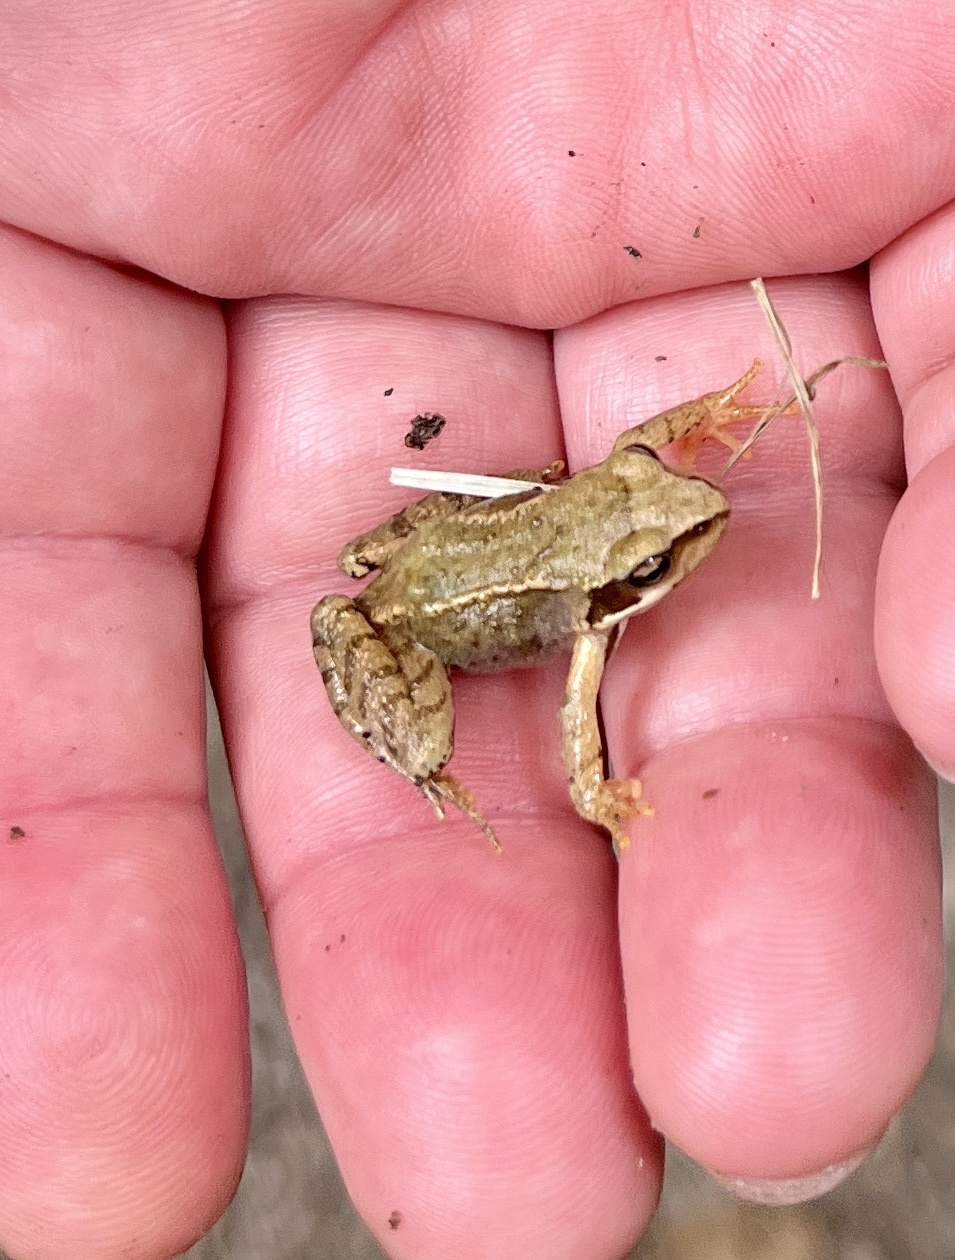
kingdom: Animalia
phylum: Chordata
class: Amphibia
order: Anura
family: Ranidae
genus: Rana
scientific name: Rana temporaria
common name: Common frog
